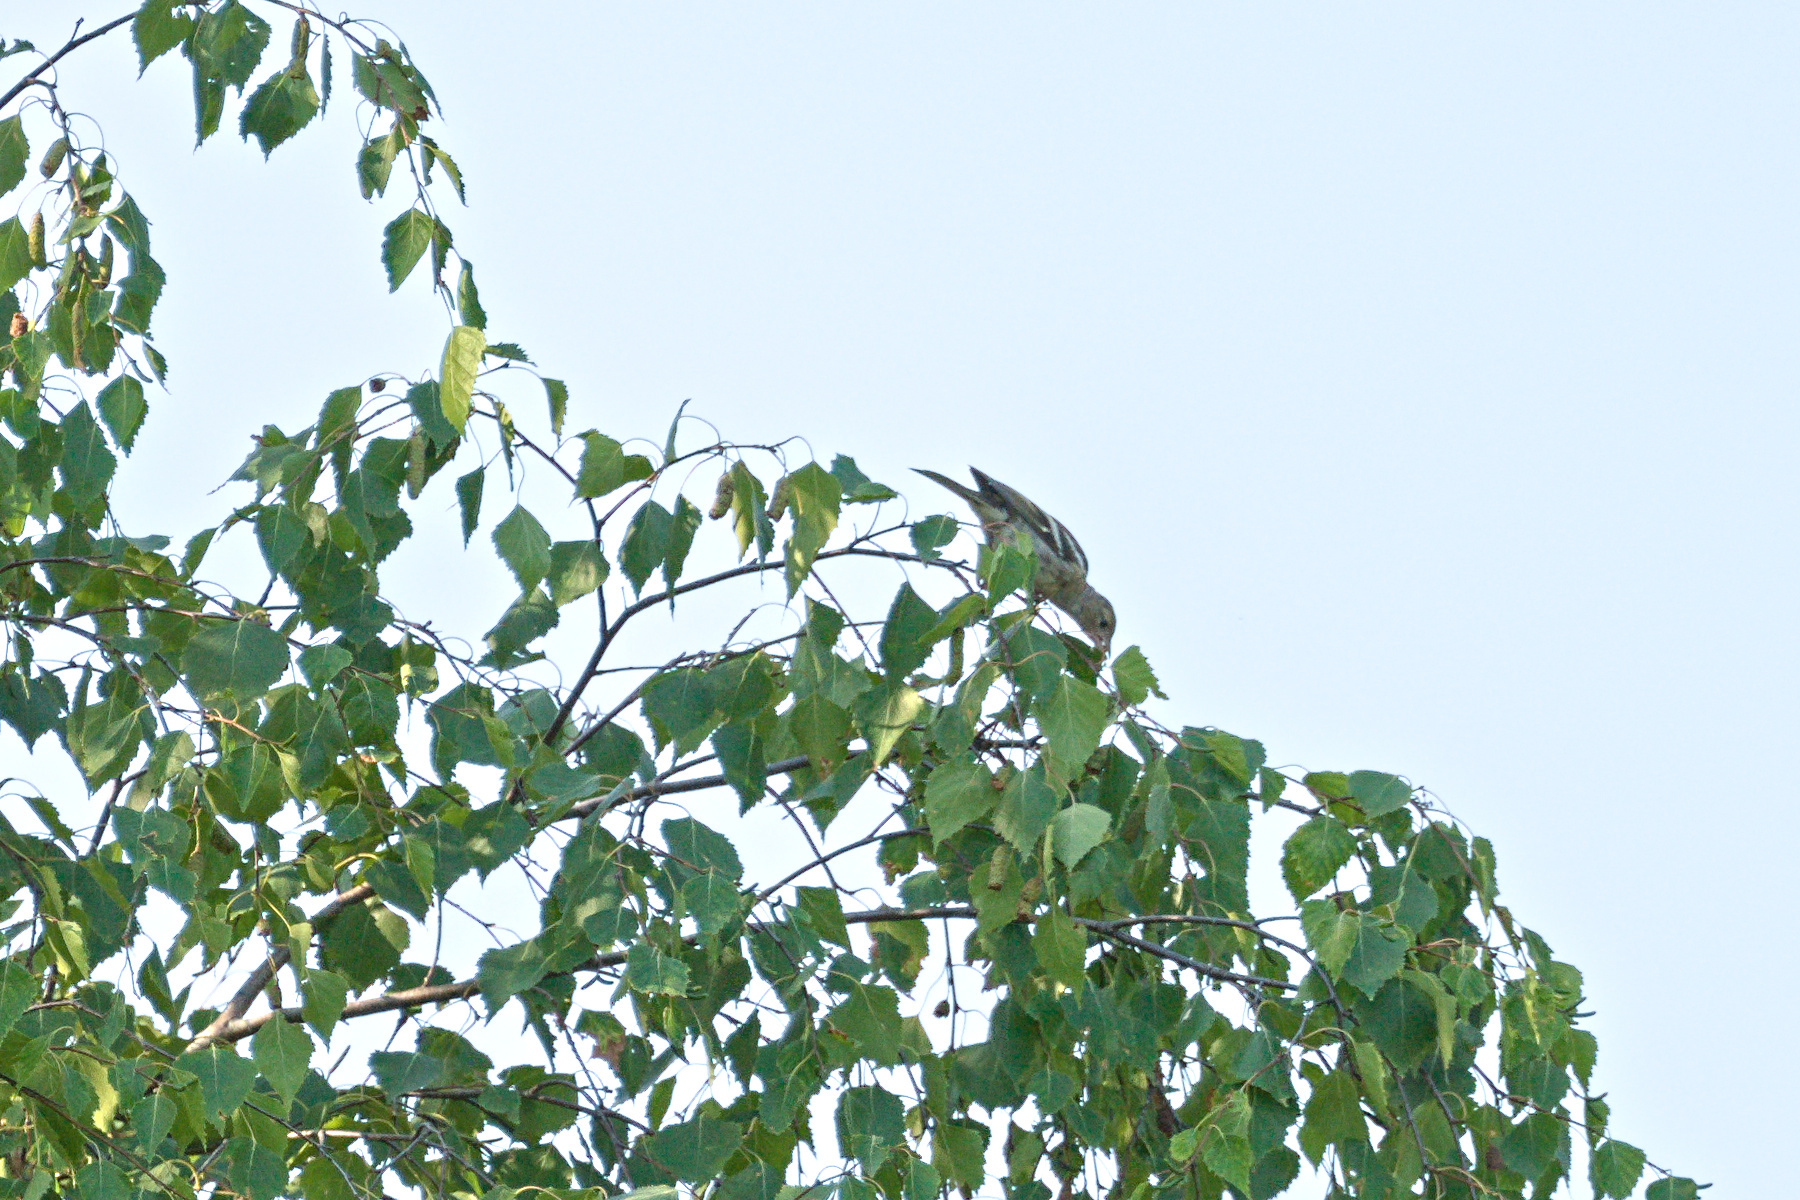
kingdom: Animalia
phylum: Chordata
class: Aves
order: Passeriformes
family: Fringillidae
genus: Fringilla
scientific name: Fringilla coelebs
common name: Common chaffinch
